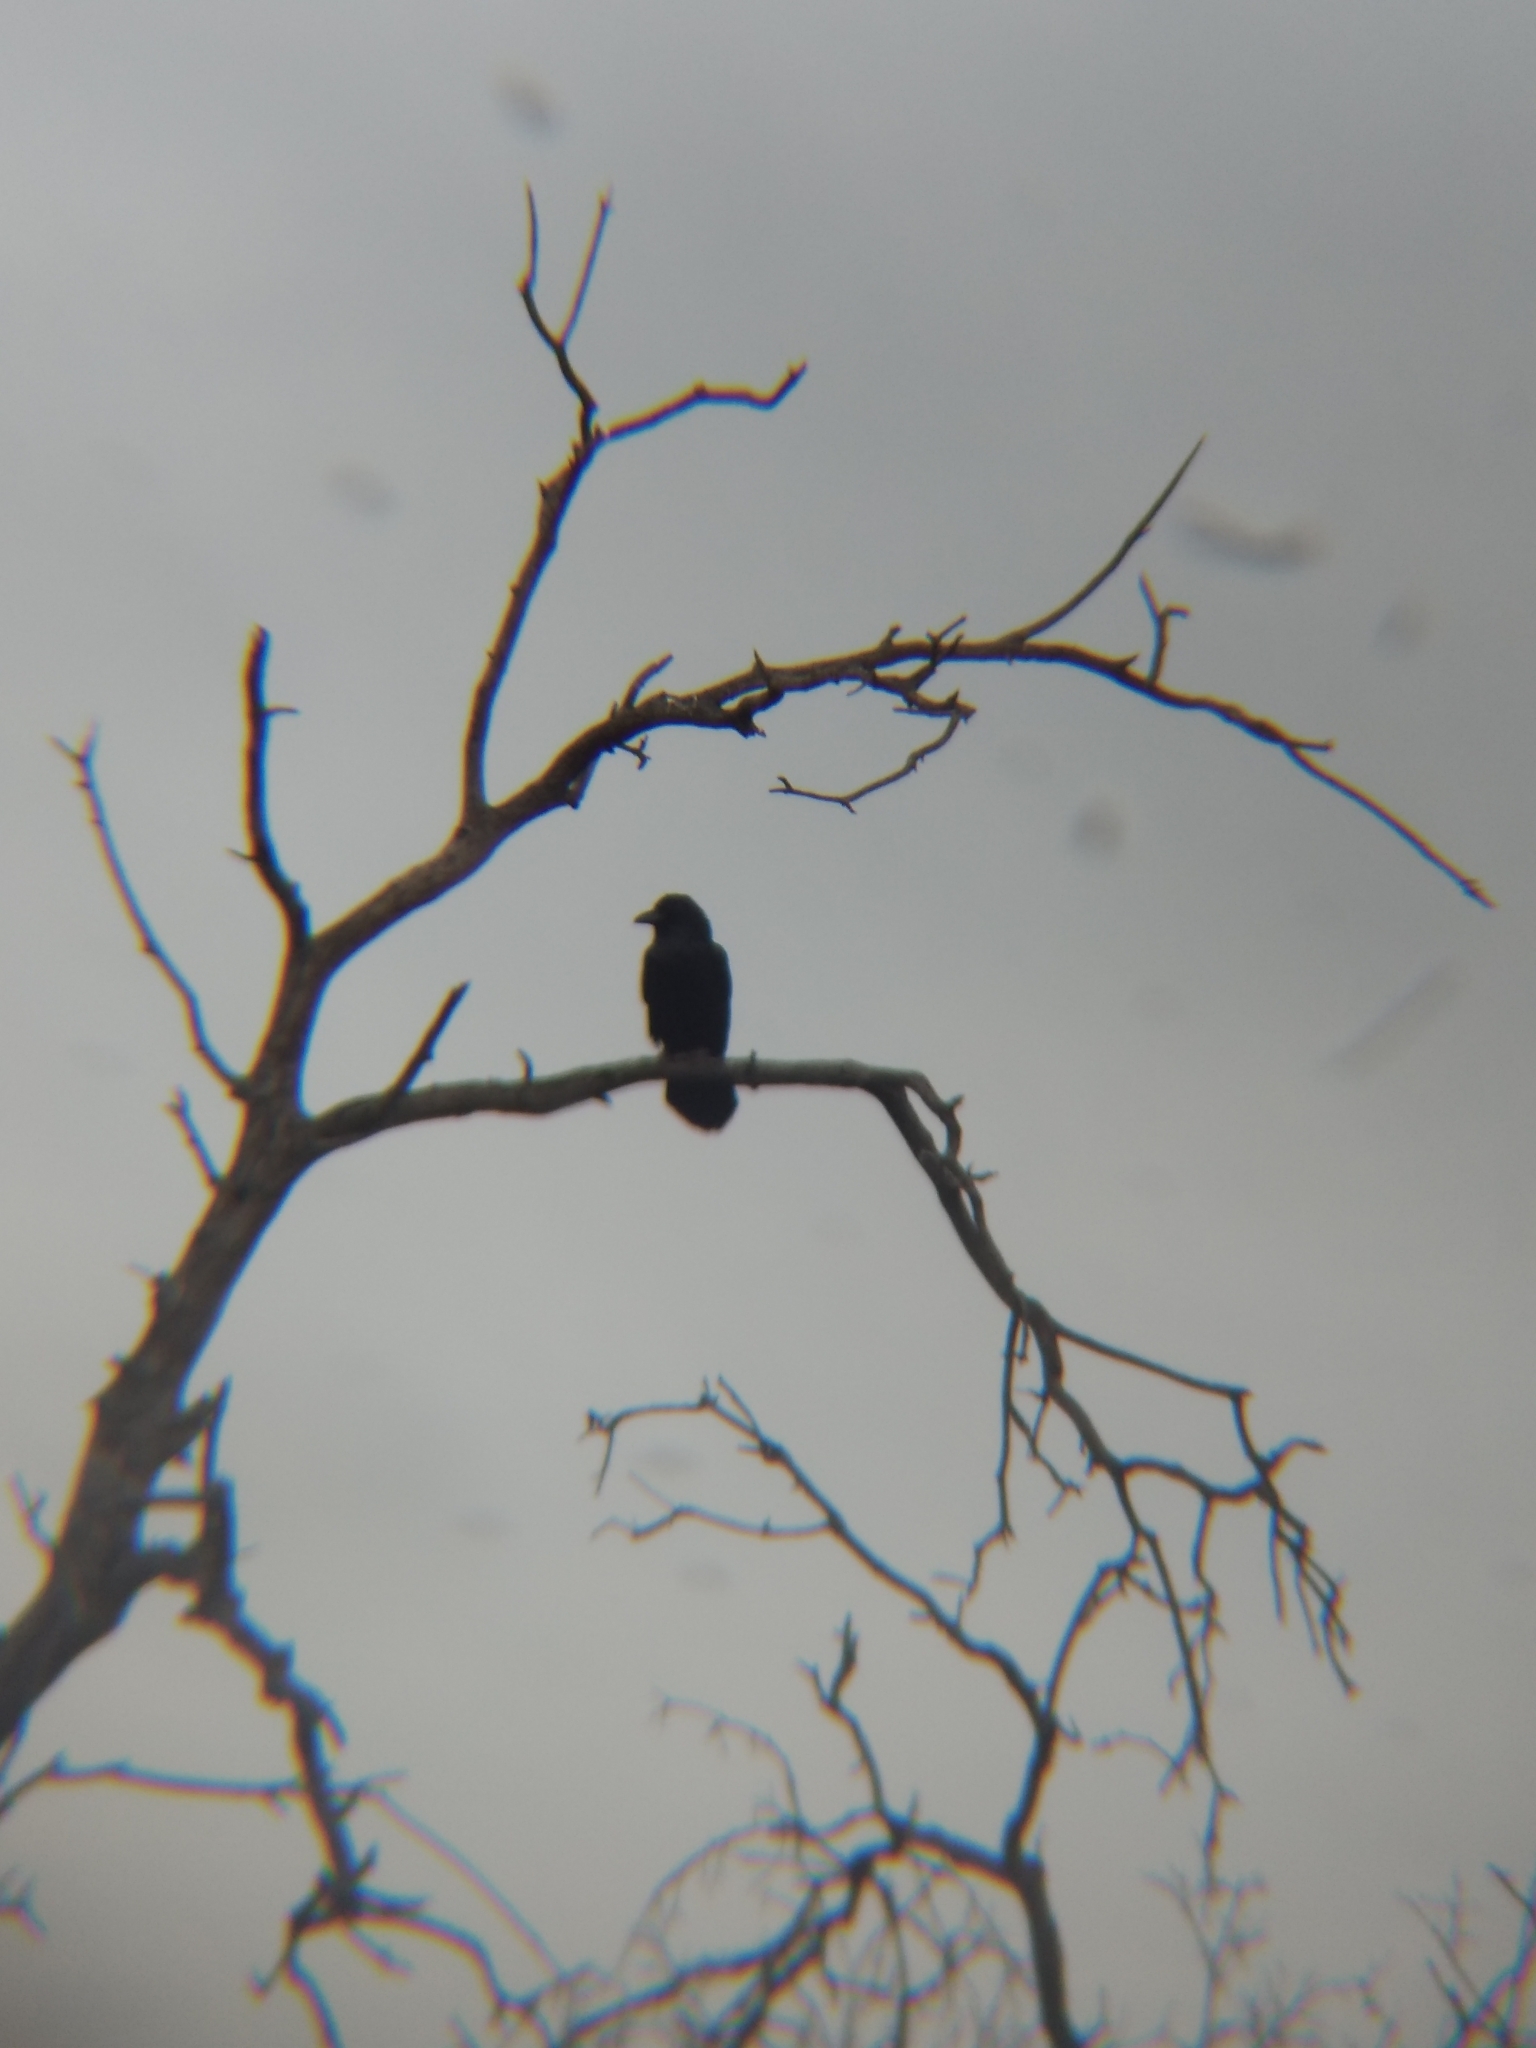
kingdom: Animalia
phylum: Chordata
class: Aves
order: Passeriformes
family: Corvidae
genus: Corvus
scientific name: Corvus corax
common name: Common raven
